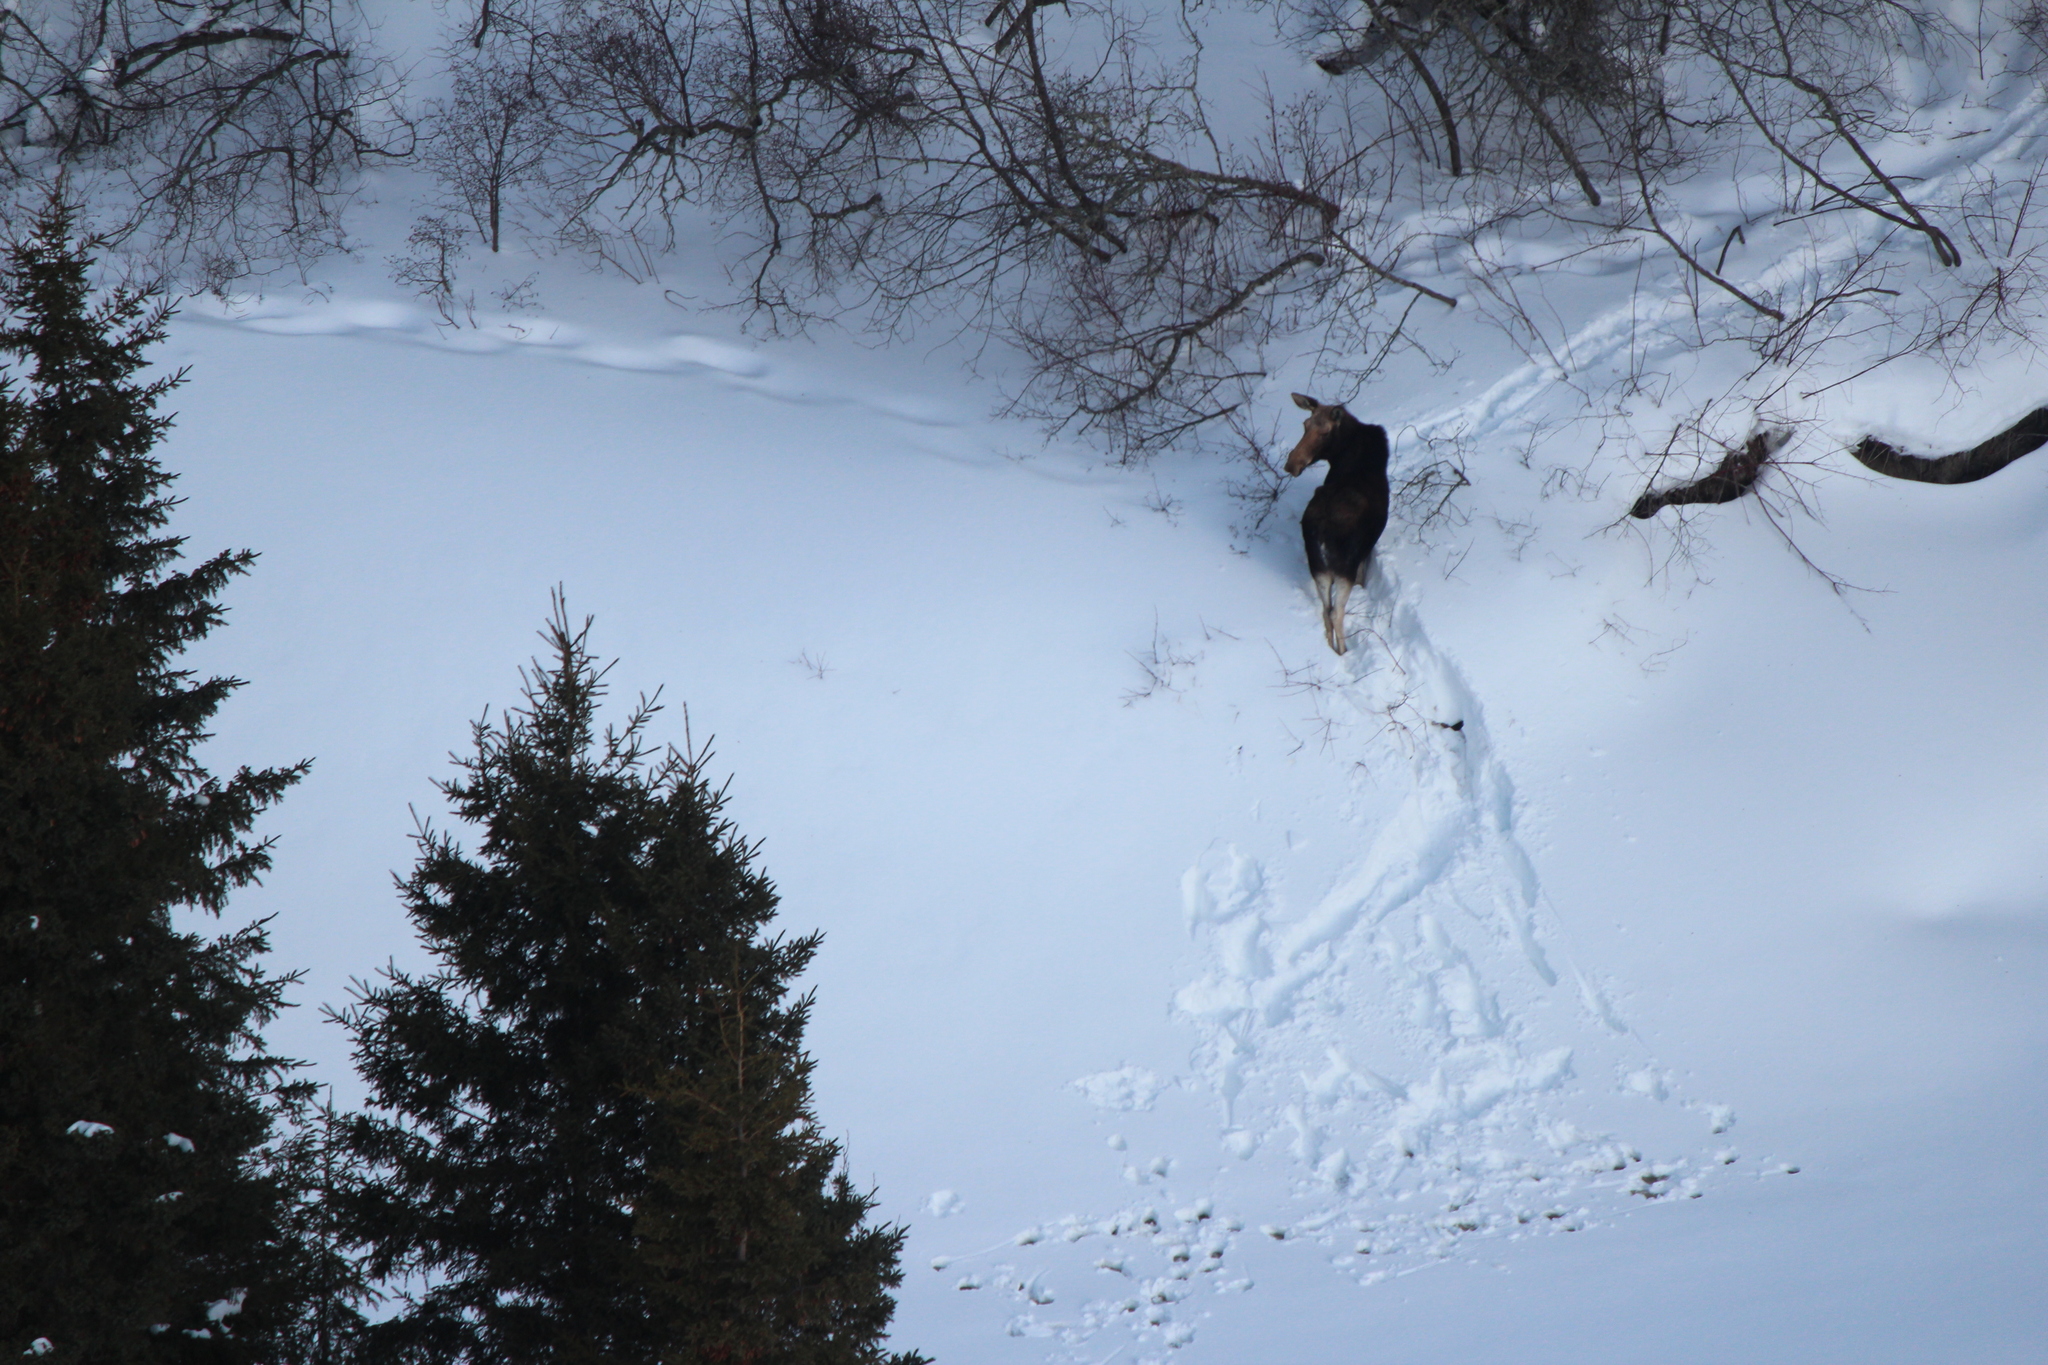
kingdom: Animalia
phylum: Chordata
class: Mammalia
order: Artiodactyla
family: Cervidae
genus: Alces
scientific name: Alces alces
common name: Moose
